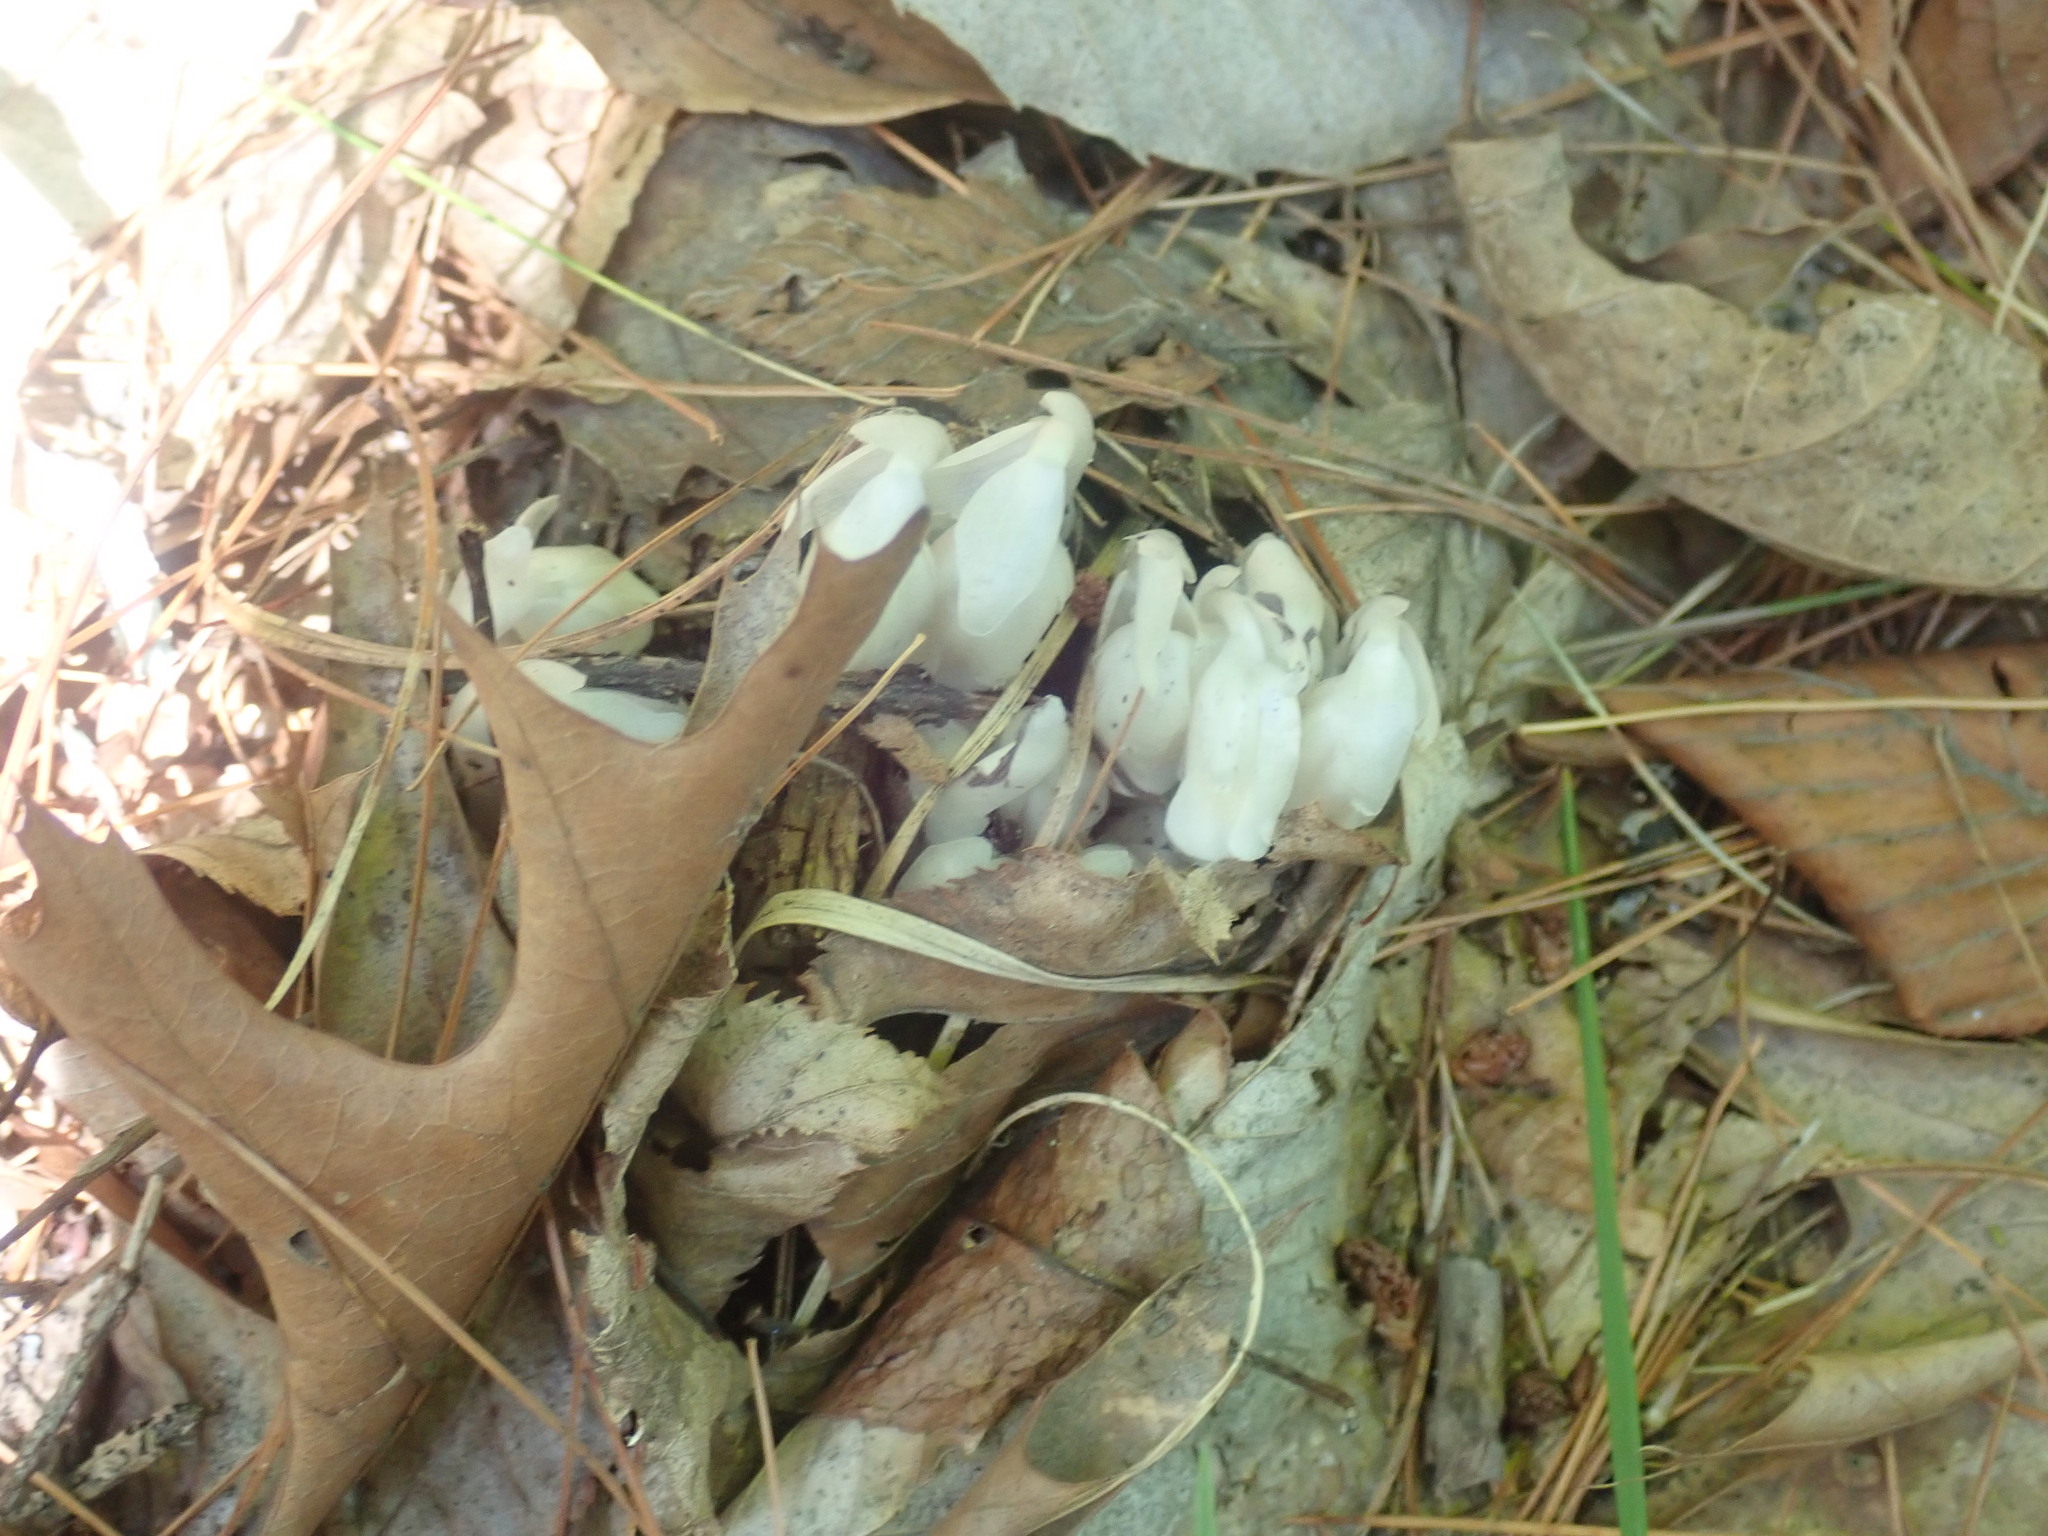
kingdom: Plantae
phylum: Tracheophyta
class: Magnoliopsida
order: Ericales
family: Ericaceae
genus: Monotropa
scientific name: Monotropa uniflora
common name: Convulsion root
